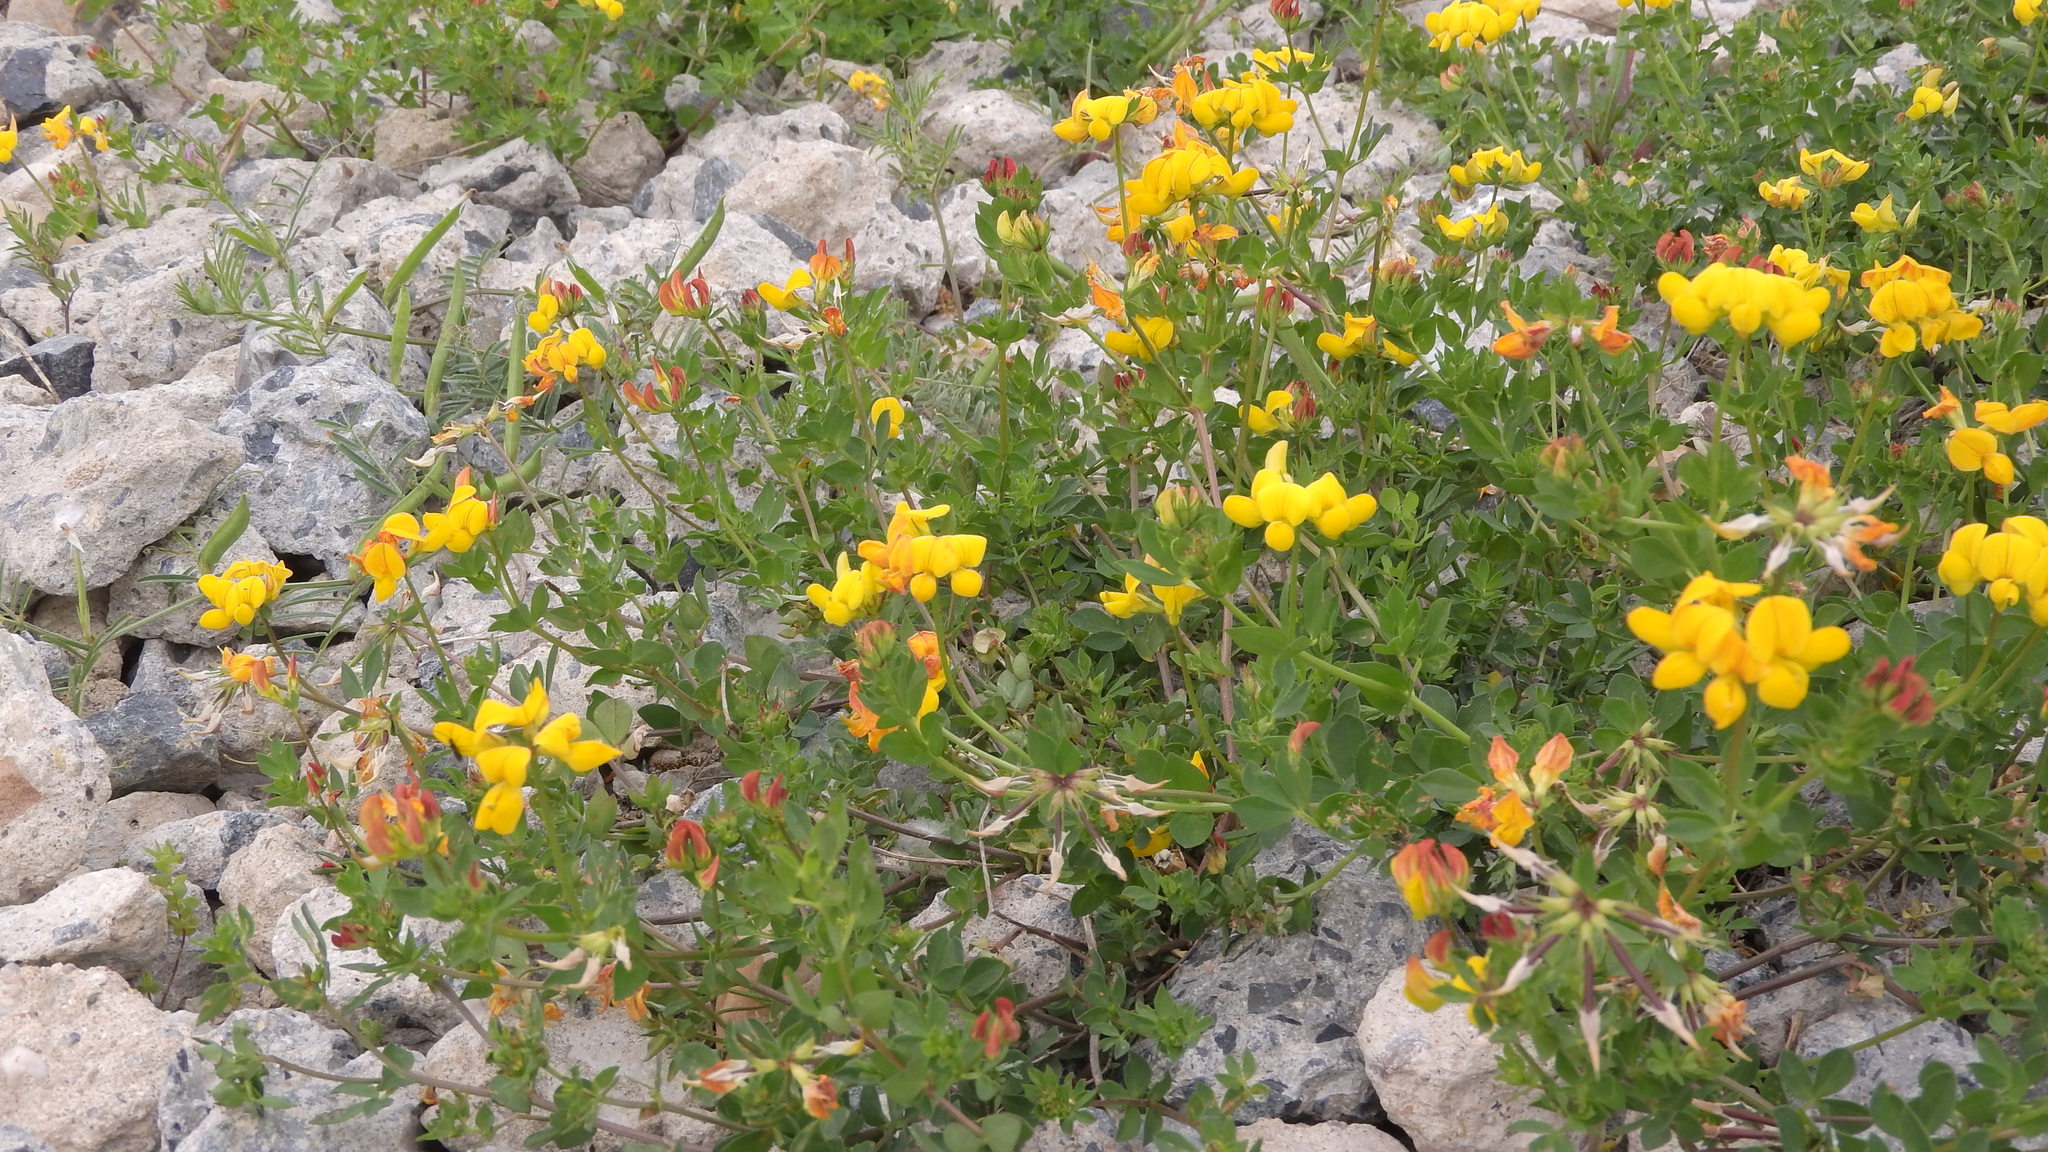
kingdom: Plantae
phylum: Tracheophyta
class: Magnoliopsida
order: Fabales
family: Fabaceae
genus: Lotus
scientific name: Lotus corniculatus
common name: Common bird's-foot-trefoil
